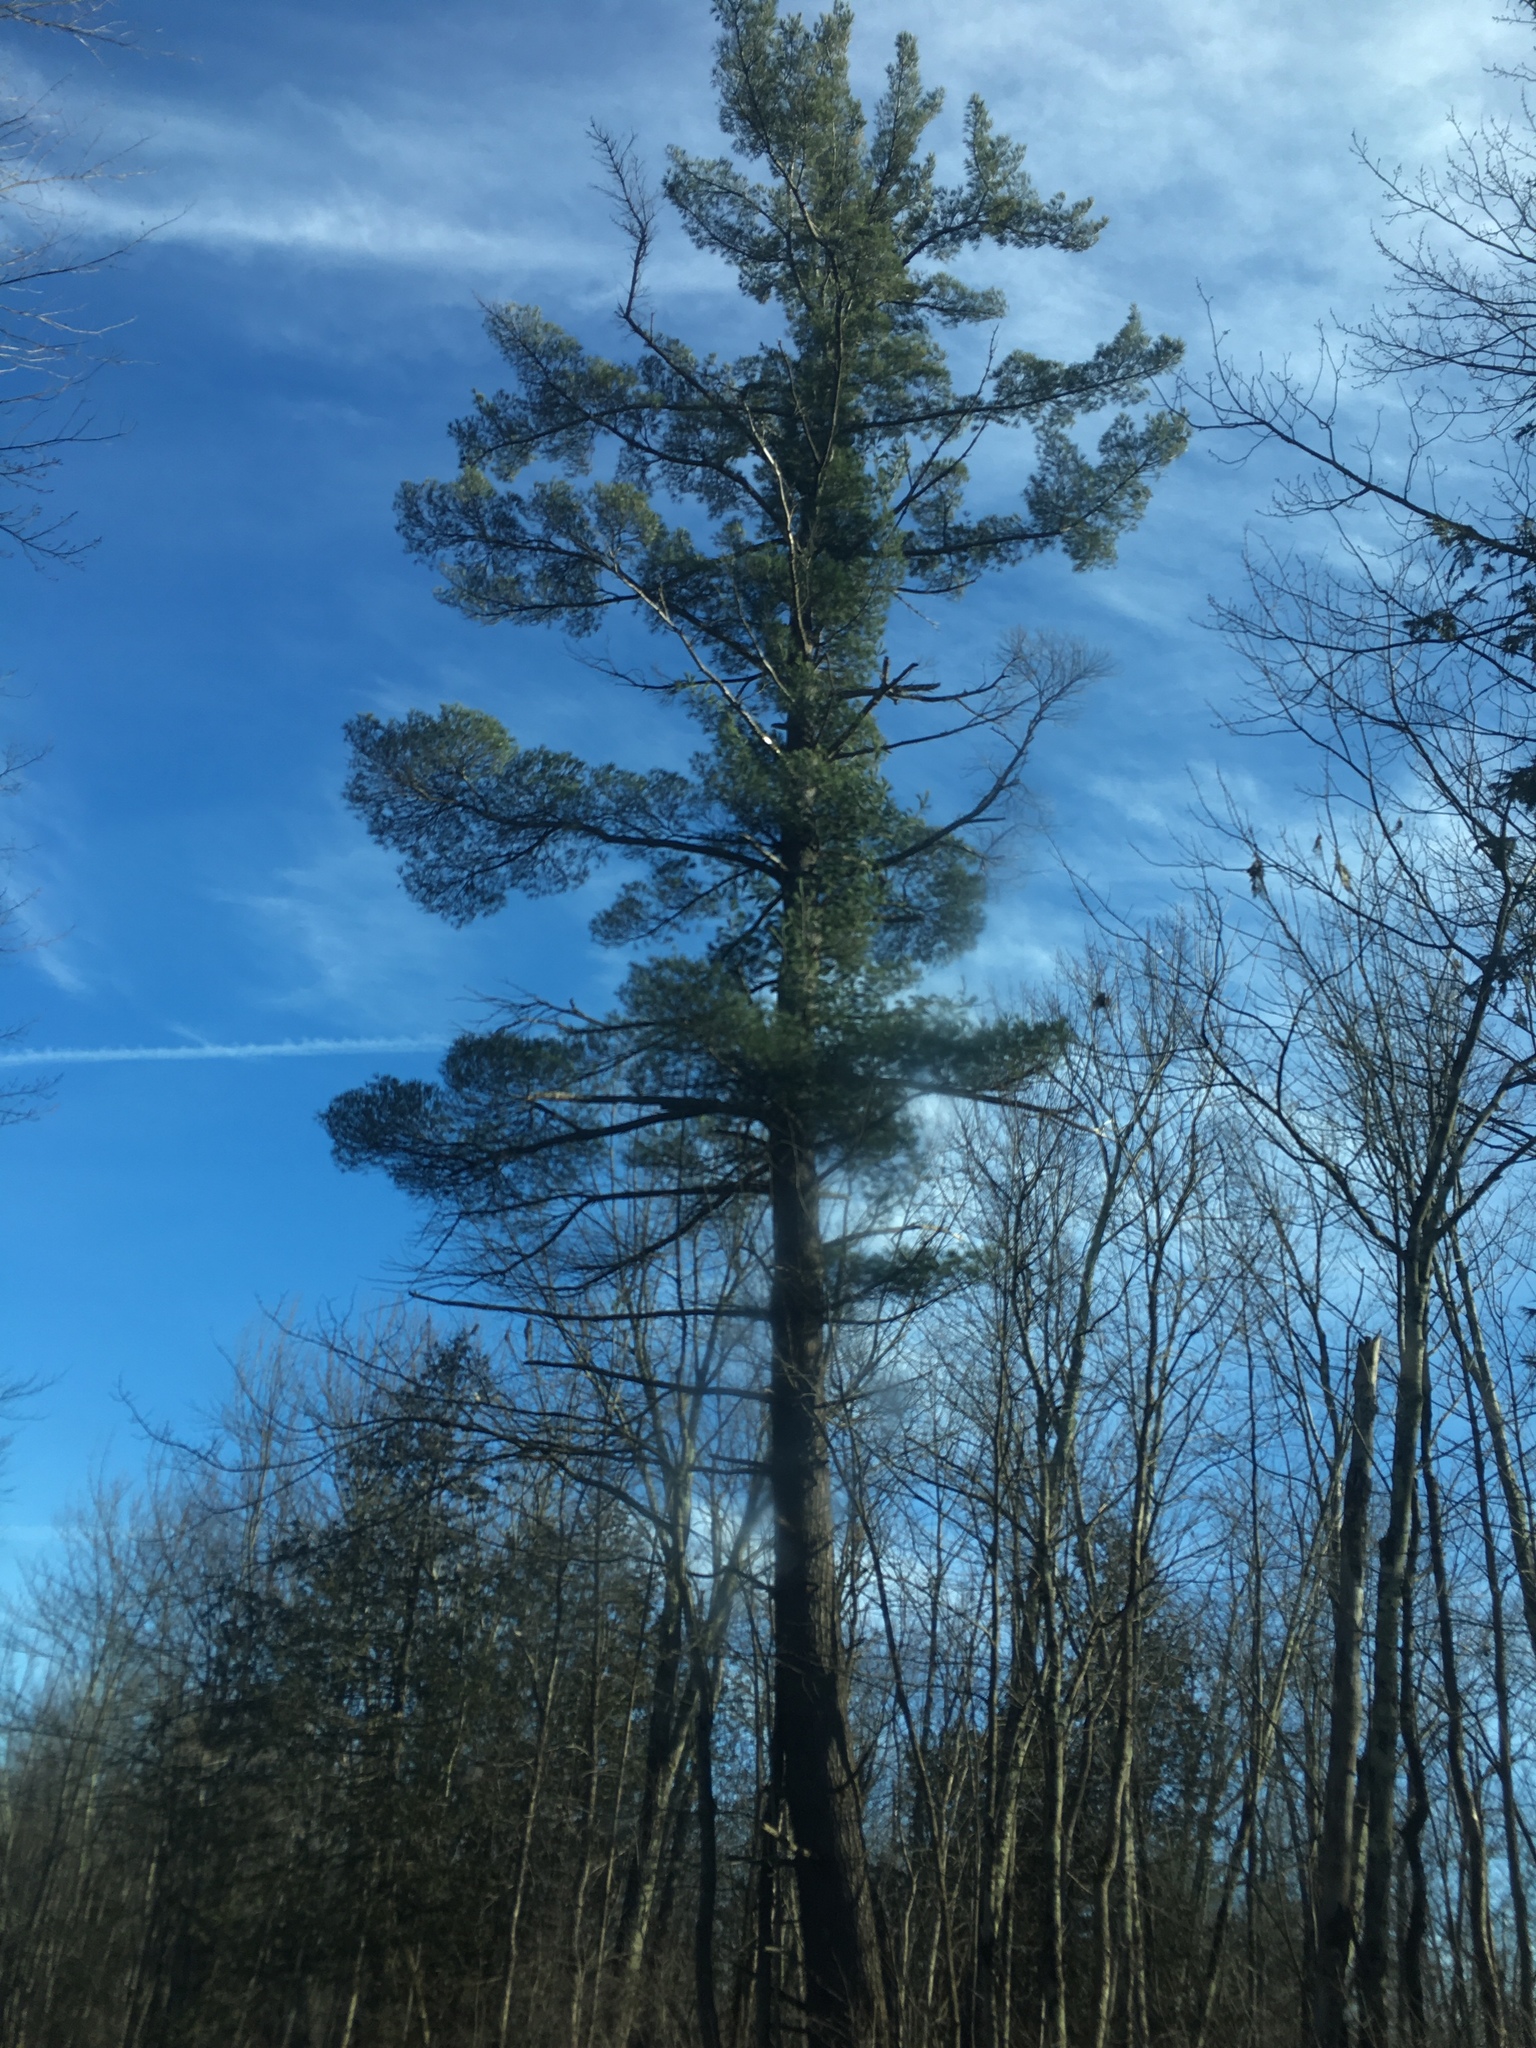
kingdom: Plantae
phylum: Tracheophyta
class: Pinopsida
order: Pinales
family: Pinaceae
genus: Pinus
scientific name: Pinus strobus
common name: Weymouth pine
